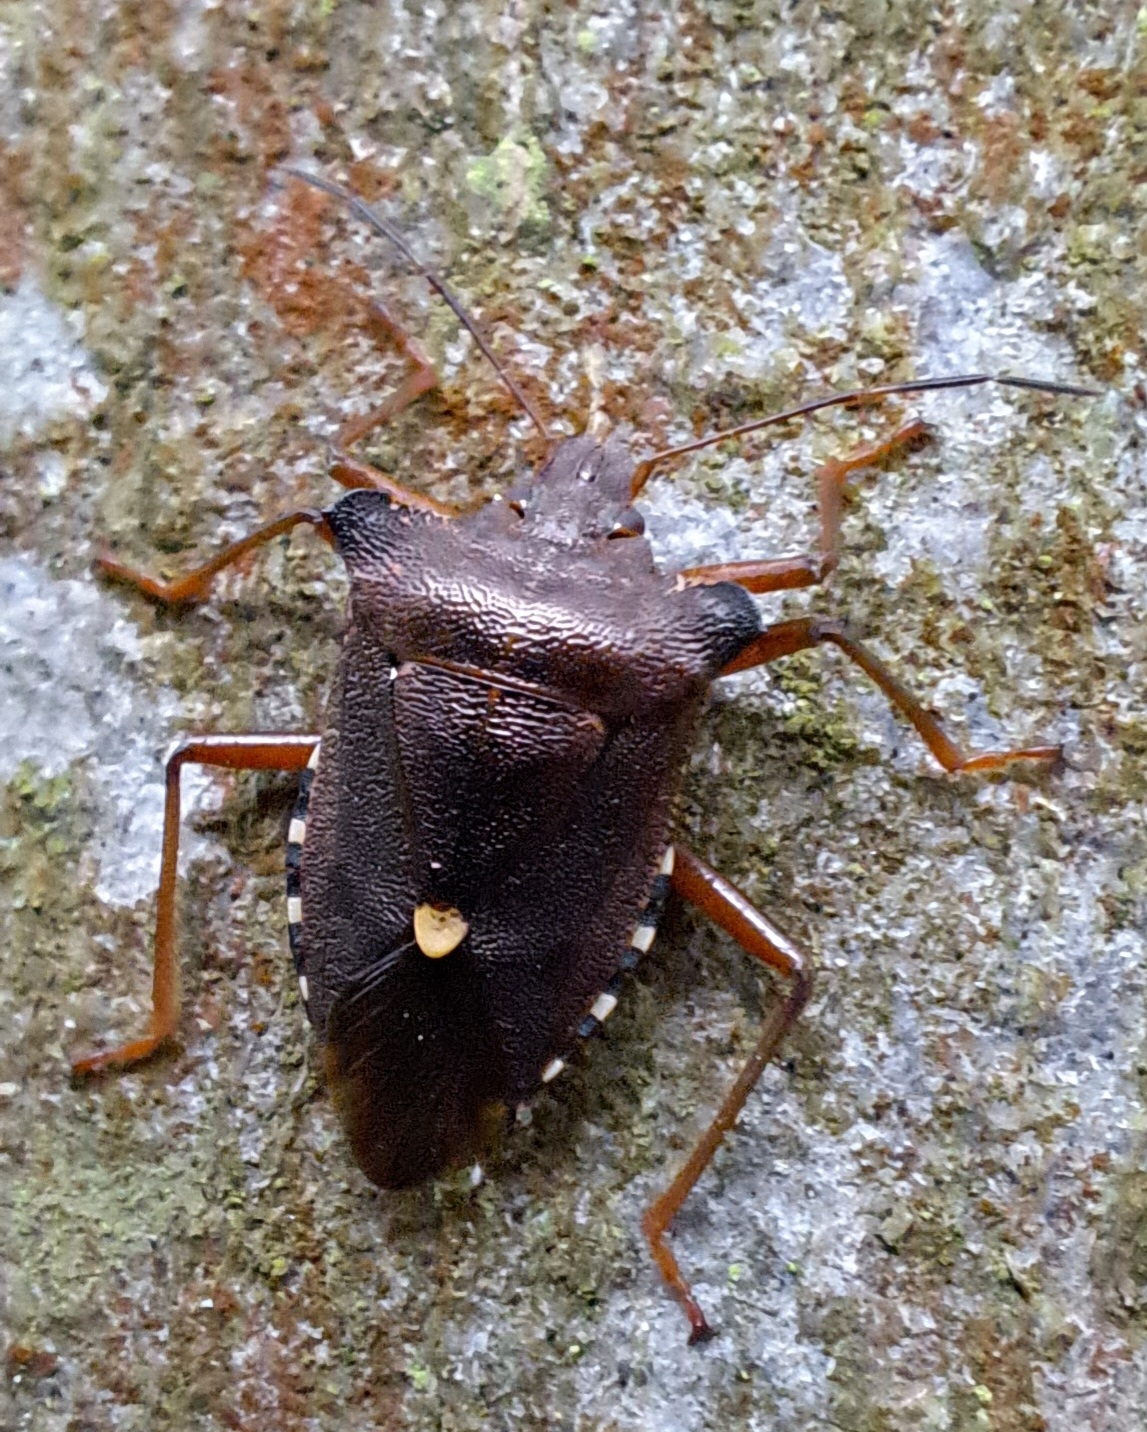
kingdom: Animalia
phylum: Arthropoda
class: Insecta
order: Hemiptera
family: Pentatomidae
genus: Pentatoma
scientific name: Pentatoma rufipes
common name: Forest bug
